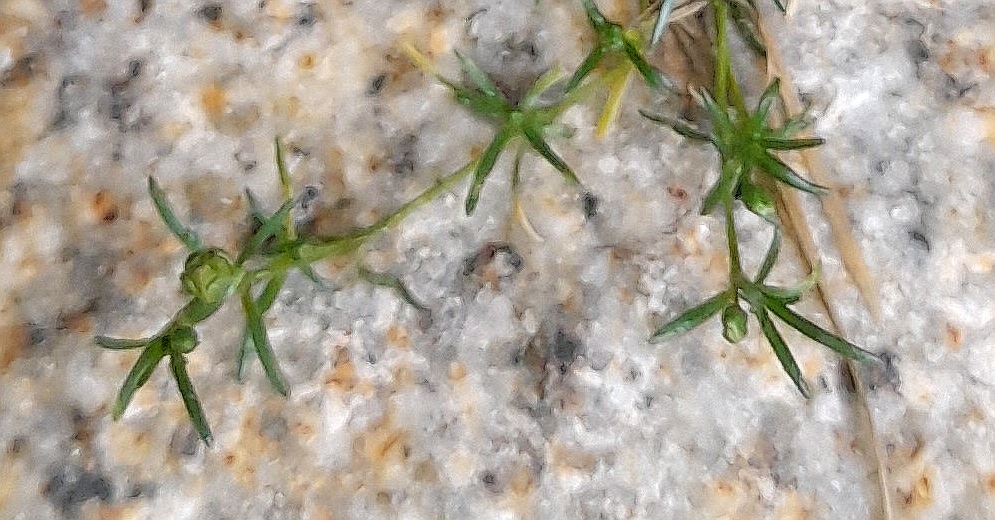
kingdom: Plantae
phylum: Tracheophyta
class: Magnoliopsida
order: Caryophyllales
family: Caryophyllaceae
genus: Sagina
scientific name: Sagina procumbens
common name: Procumbent pearlwort
